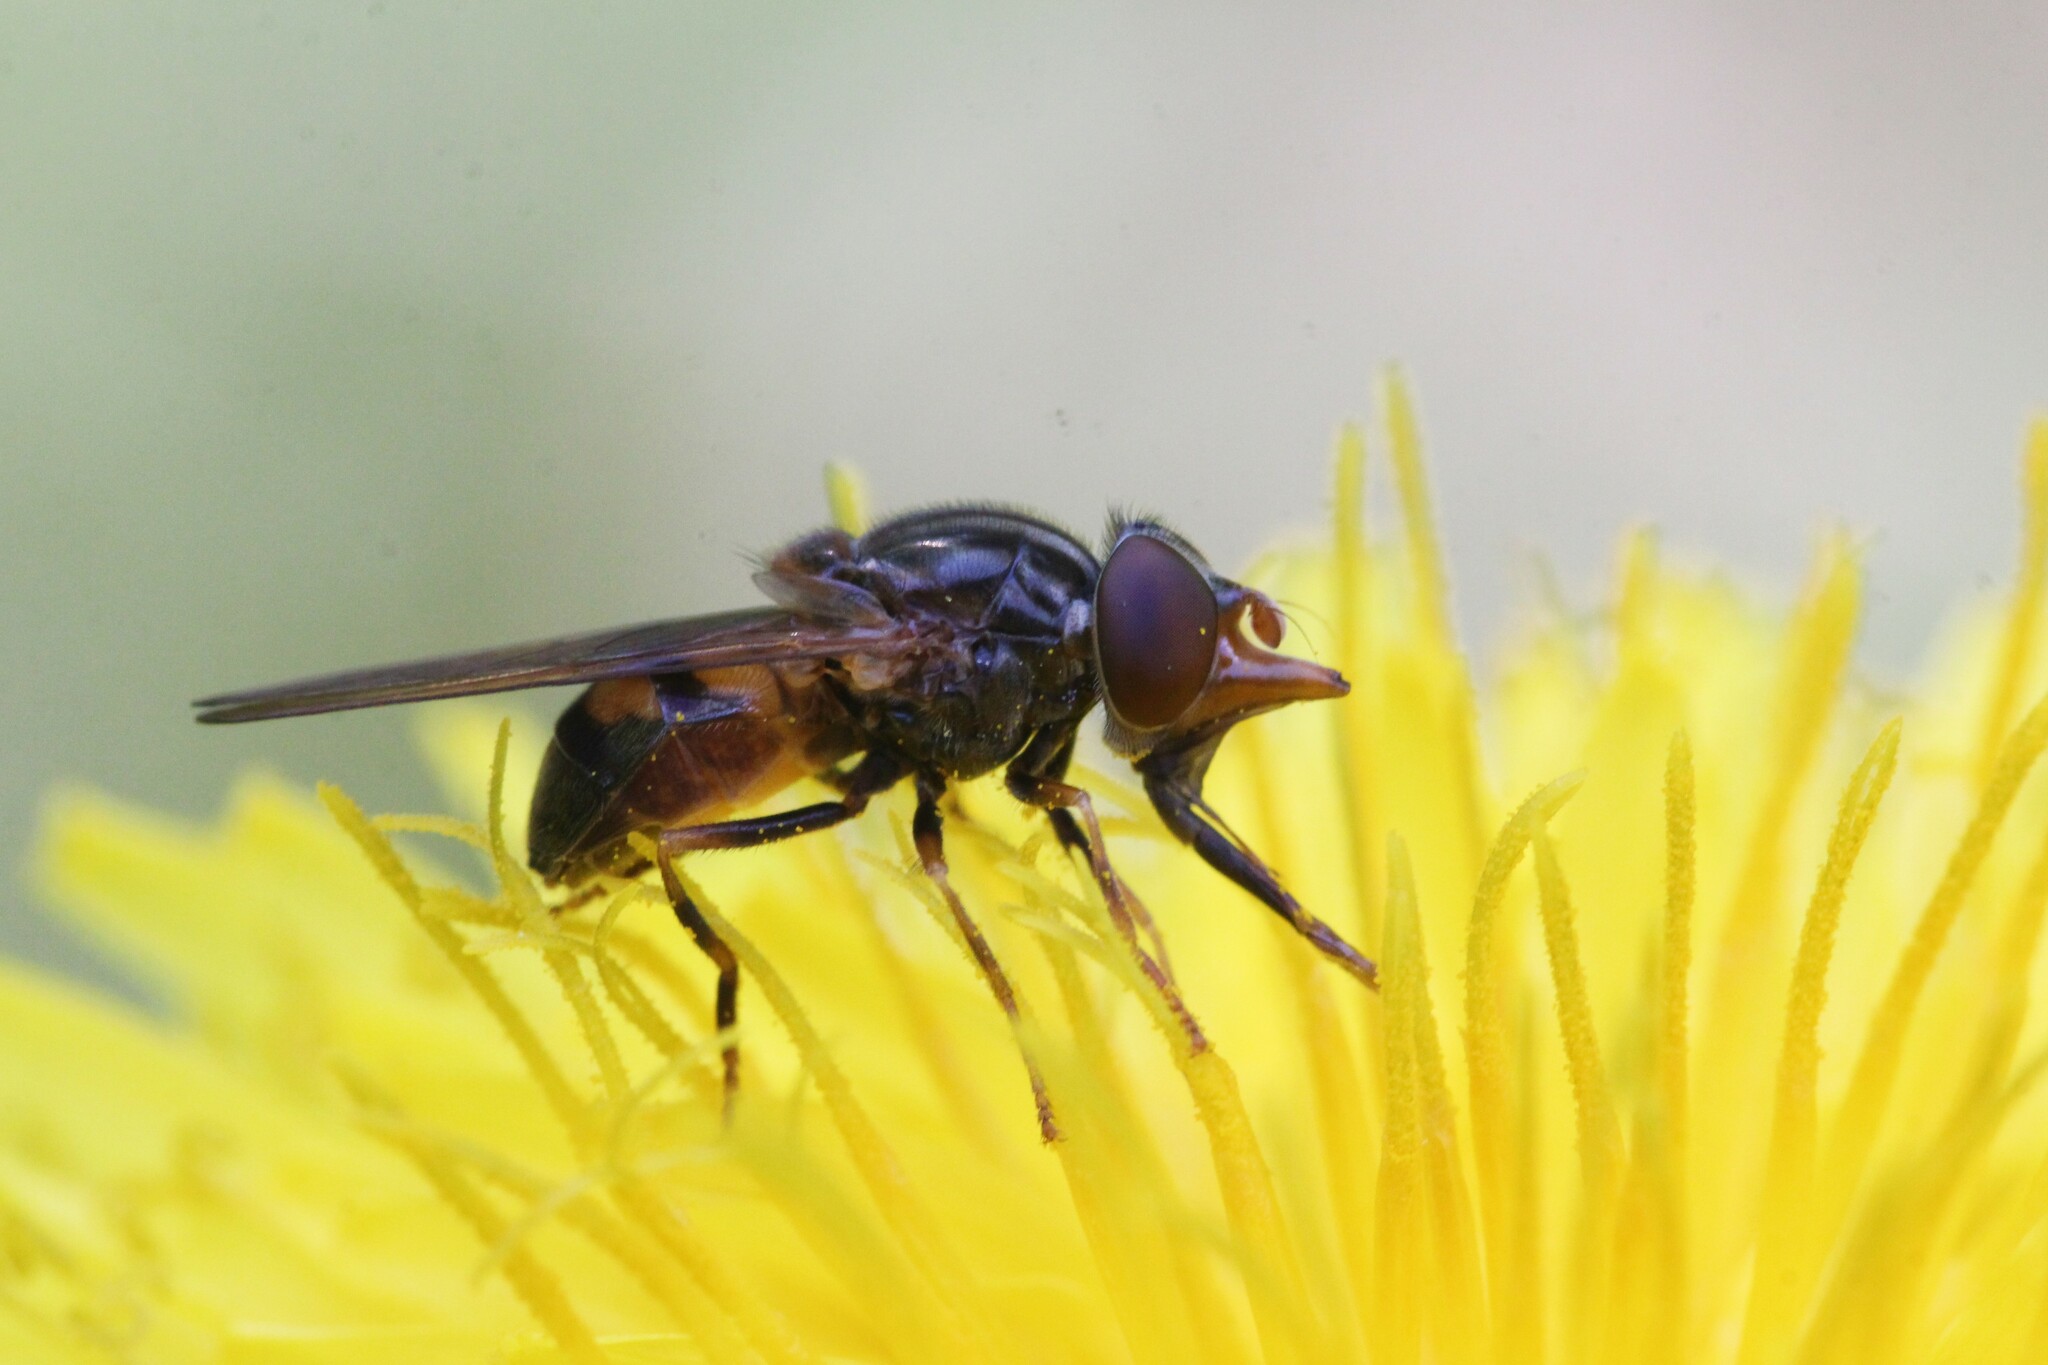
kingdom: Animalia
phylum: Arthropoda
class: Insecta
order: Diptera
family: Syrphidae
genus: Rhingia
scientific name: Rhingia nasica
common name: American snout fly
